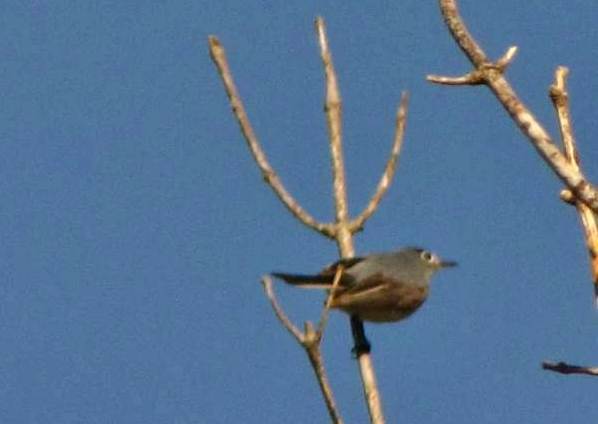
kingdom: Animalia
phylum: Chordata
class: Aves
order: Passeriformes
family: Polioptilidae
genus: Polioptila
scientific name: Polioptila caerulea
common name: Blue-gray gnatcatcher
